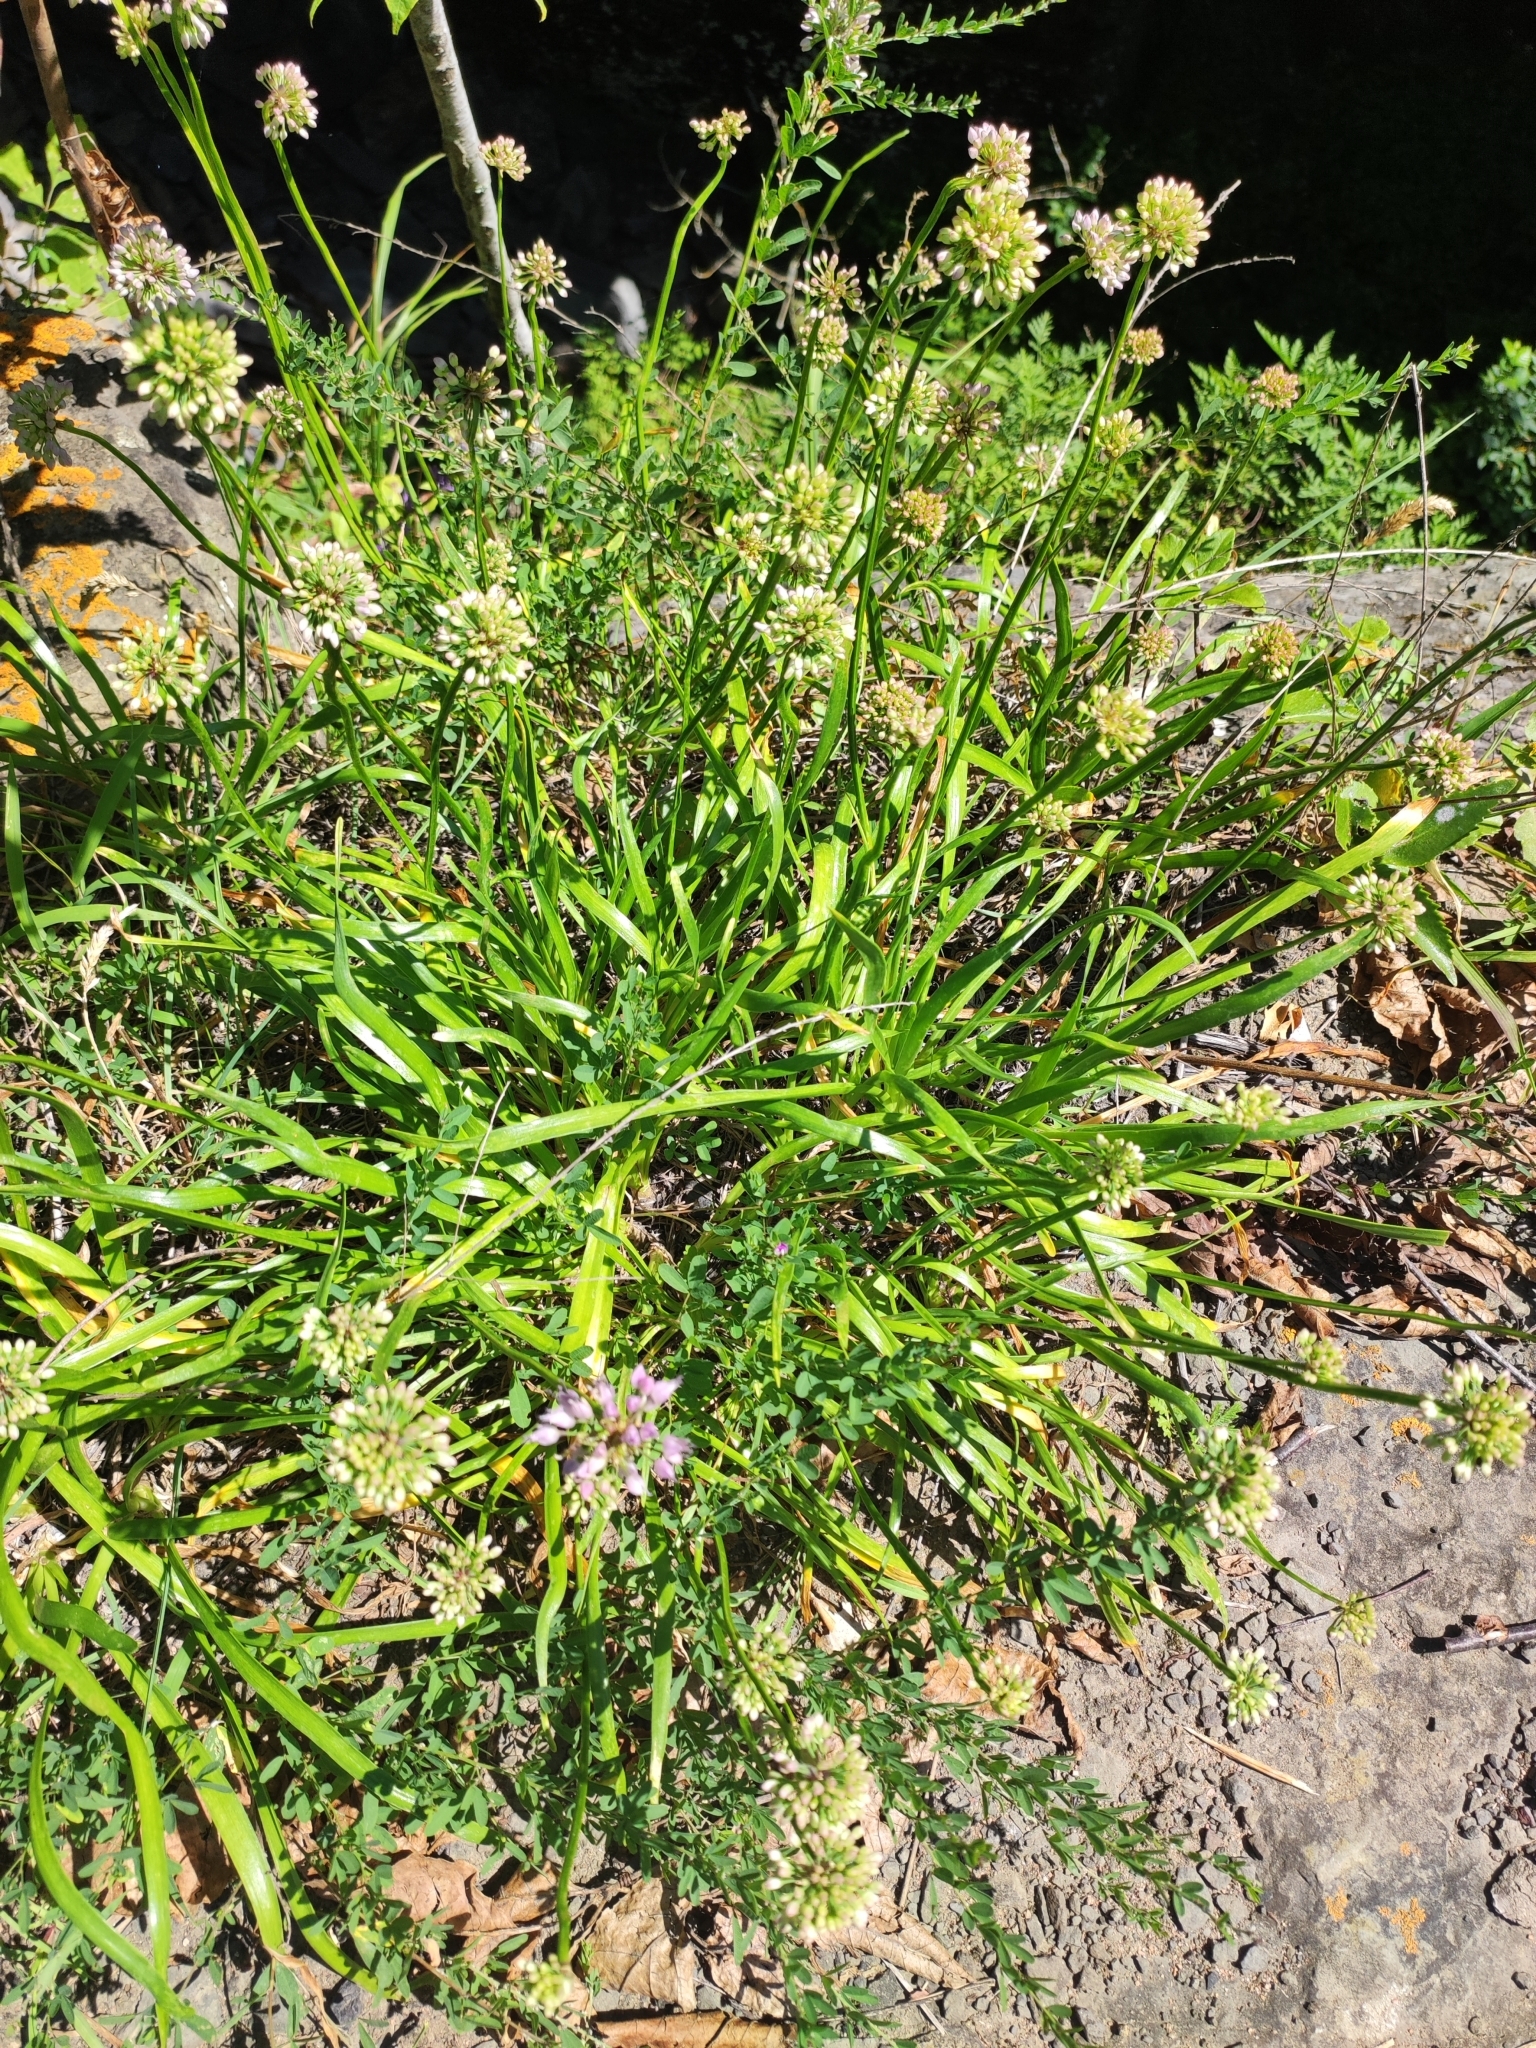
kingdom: Plantae
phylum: Tracheophyta
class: Liliopsida
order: Asparagales
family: Amaryllidaceae
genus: Allium
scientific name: Allium spirale
